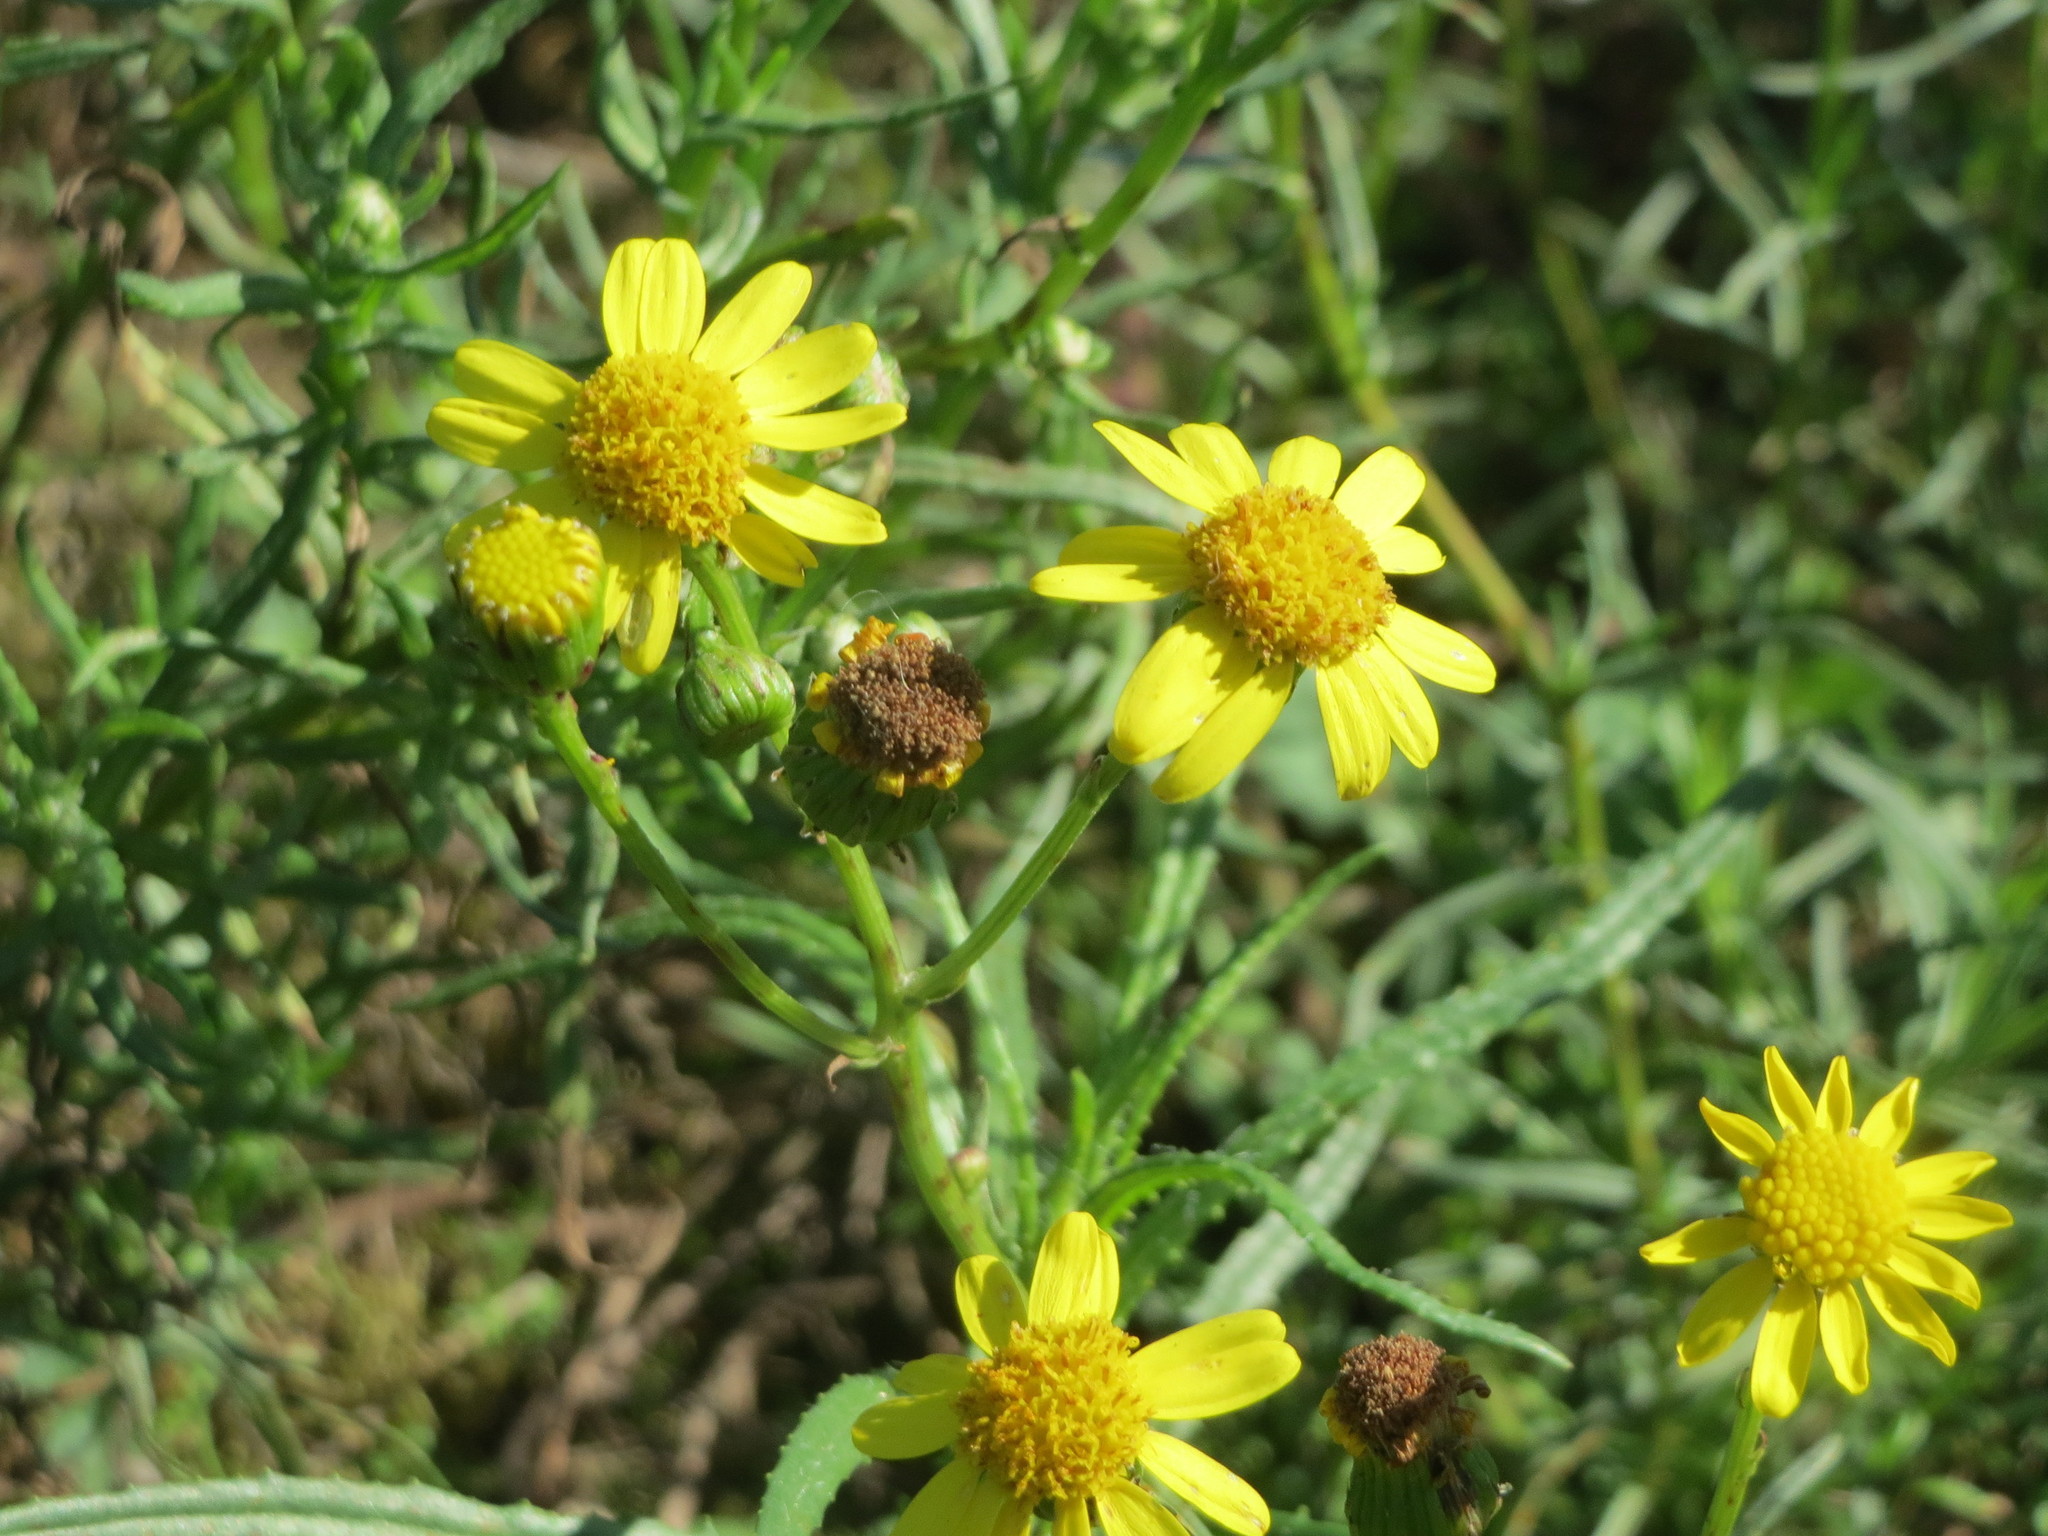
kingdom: Plantae
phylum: Tracheophyta
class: Magnoliopsida
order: Asterales
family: Asteraceae
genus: Senecio
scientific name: Senecio inaequidens
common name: Narrow-leaved ragwort
